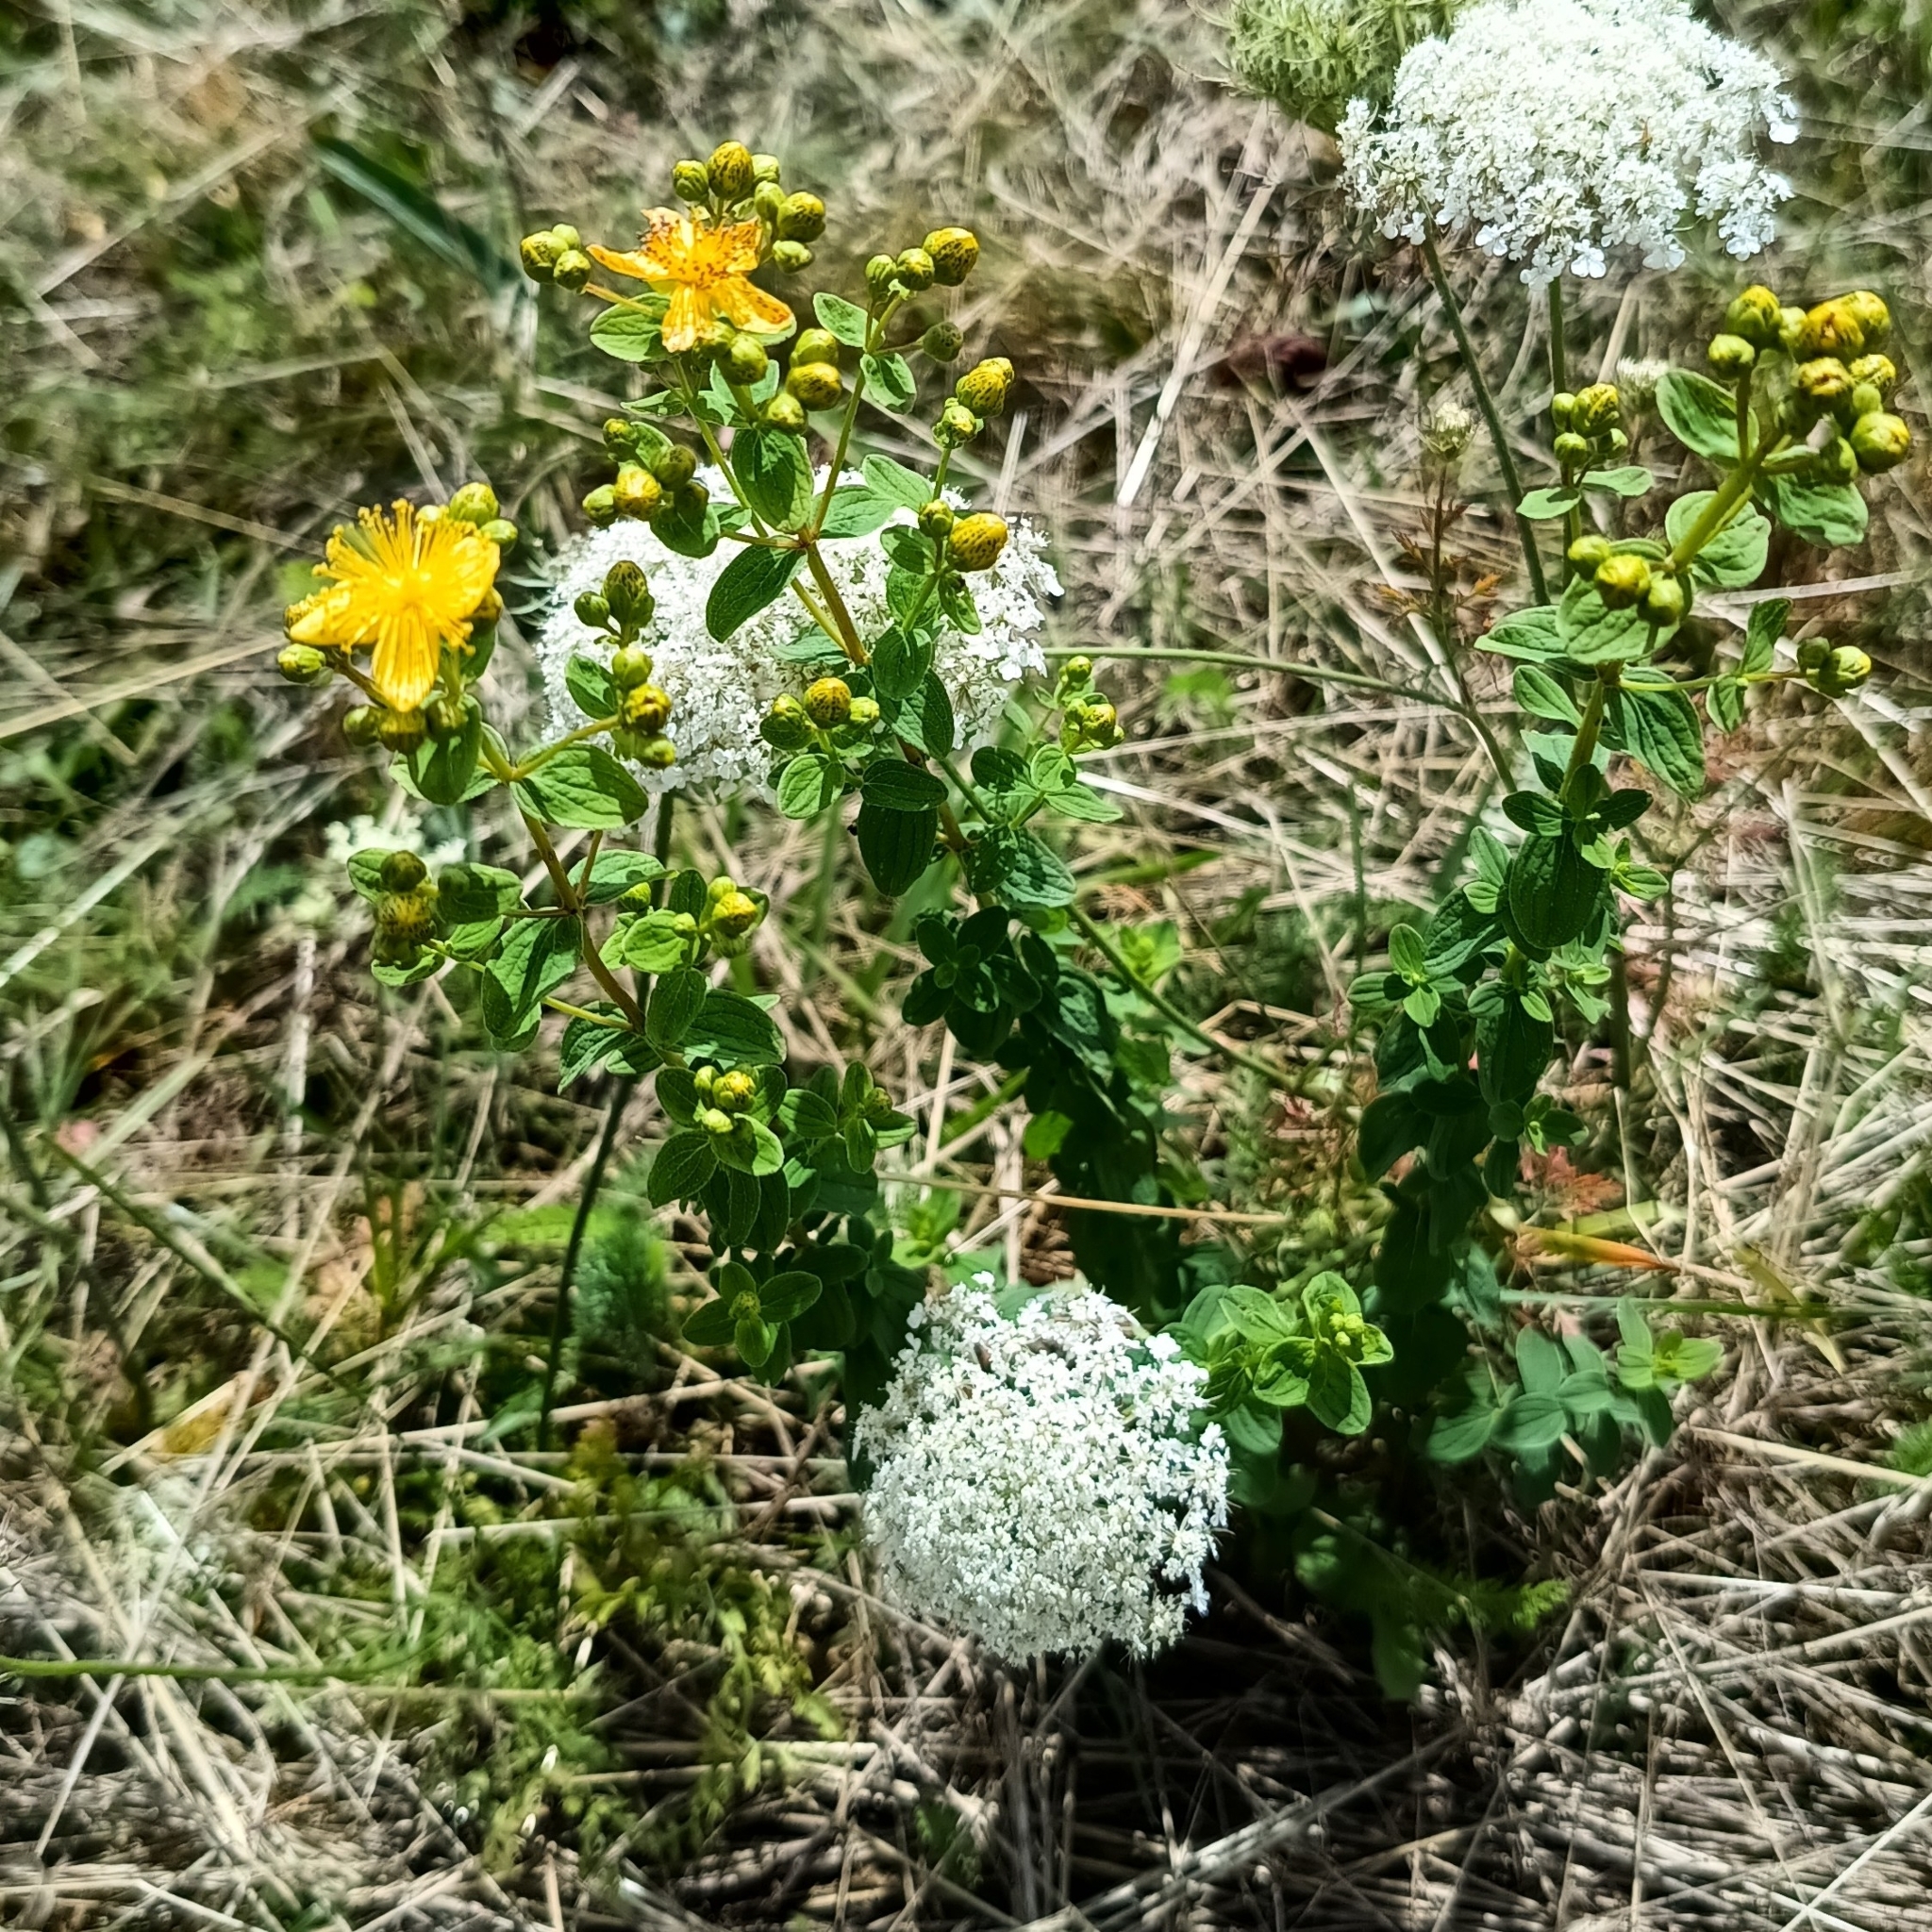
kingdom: Plantae
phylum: Tracheophyta
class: Magnoliopsida
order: Malpighiales
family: Hypericaceae
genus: Hypericum
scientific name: Hypericum maculatum
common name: Imperforate st. john's-wort
